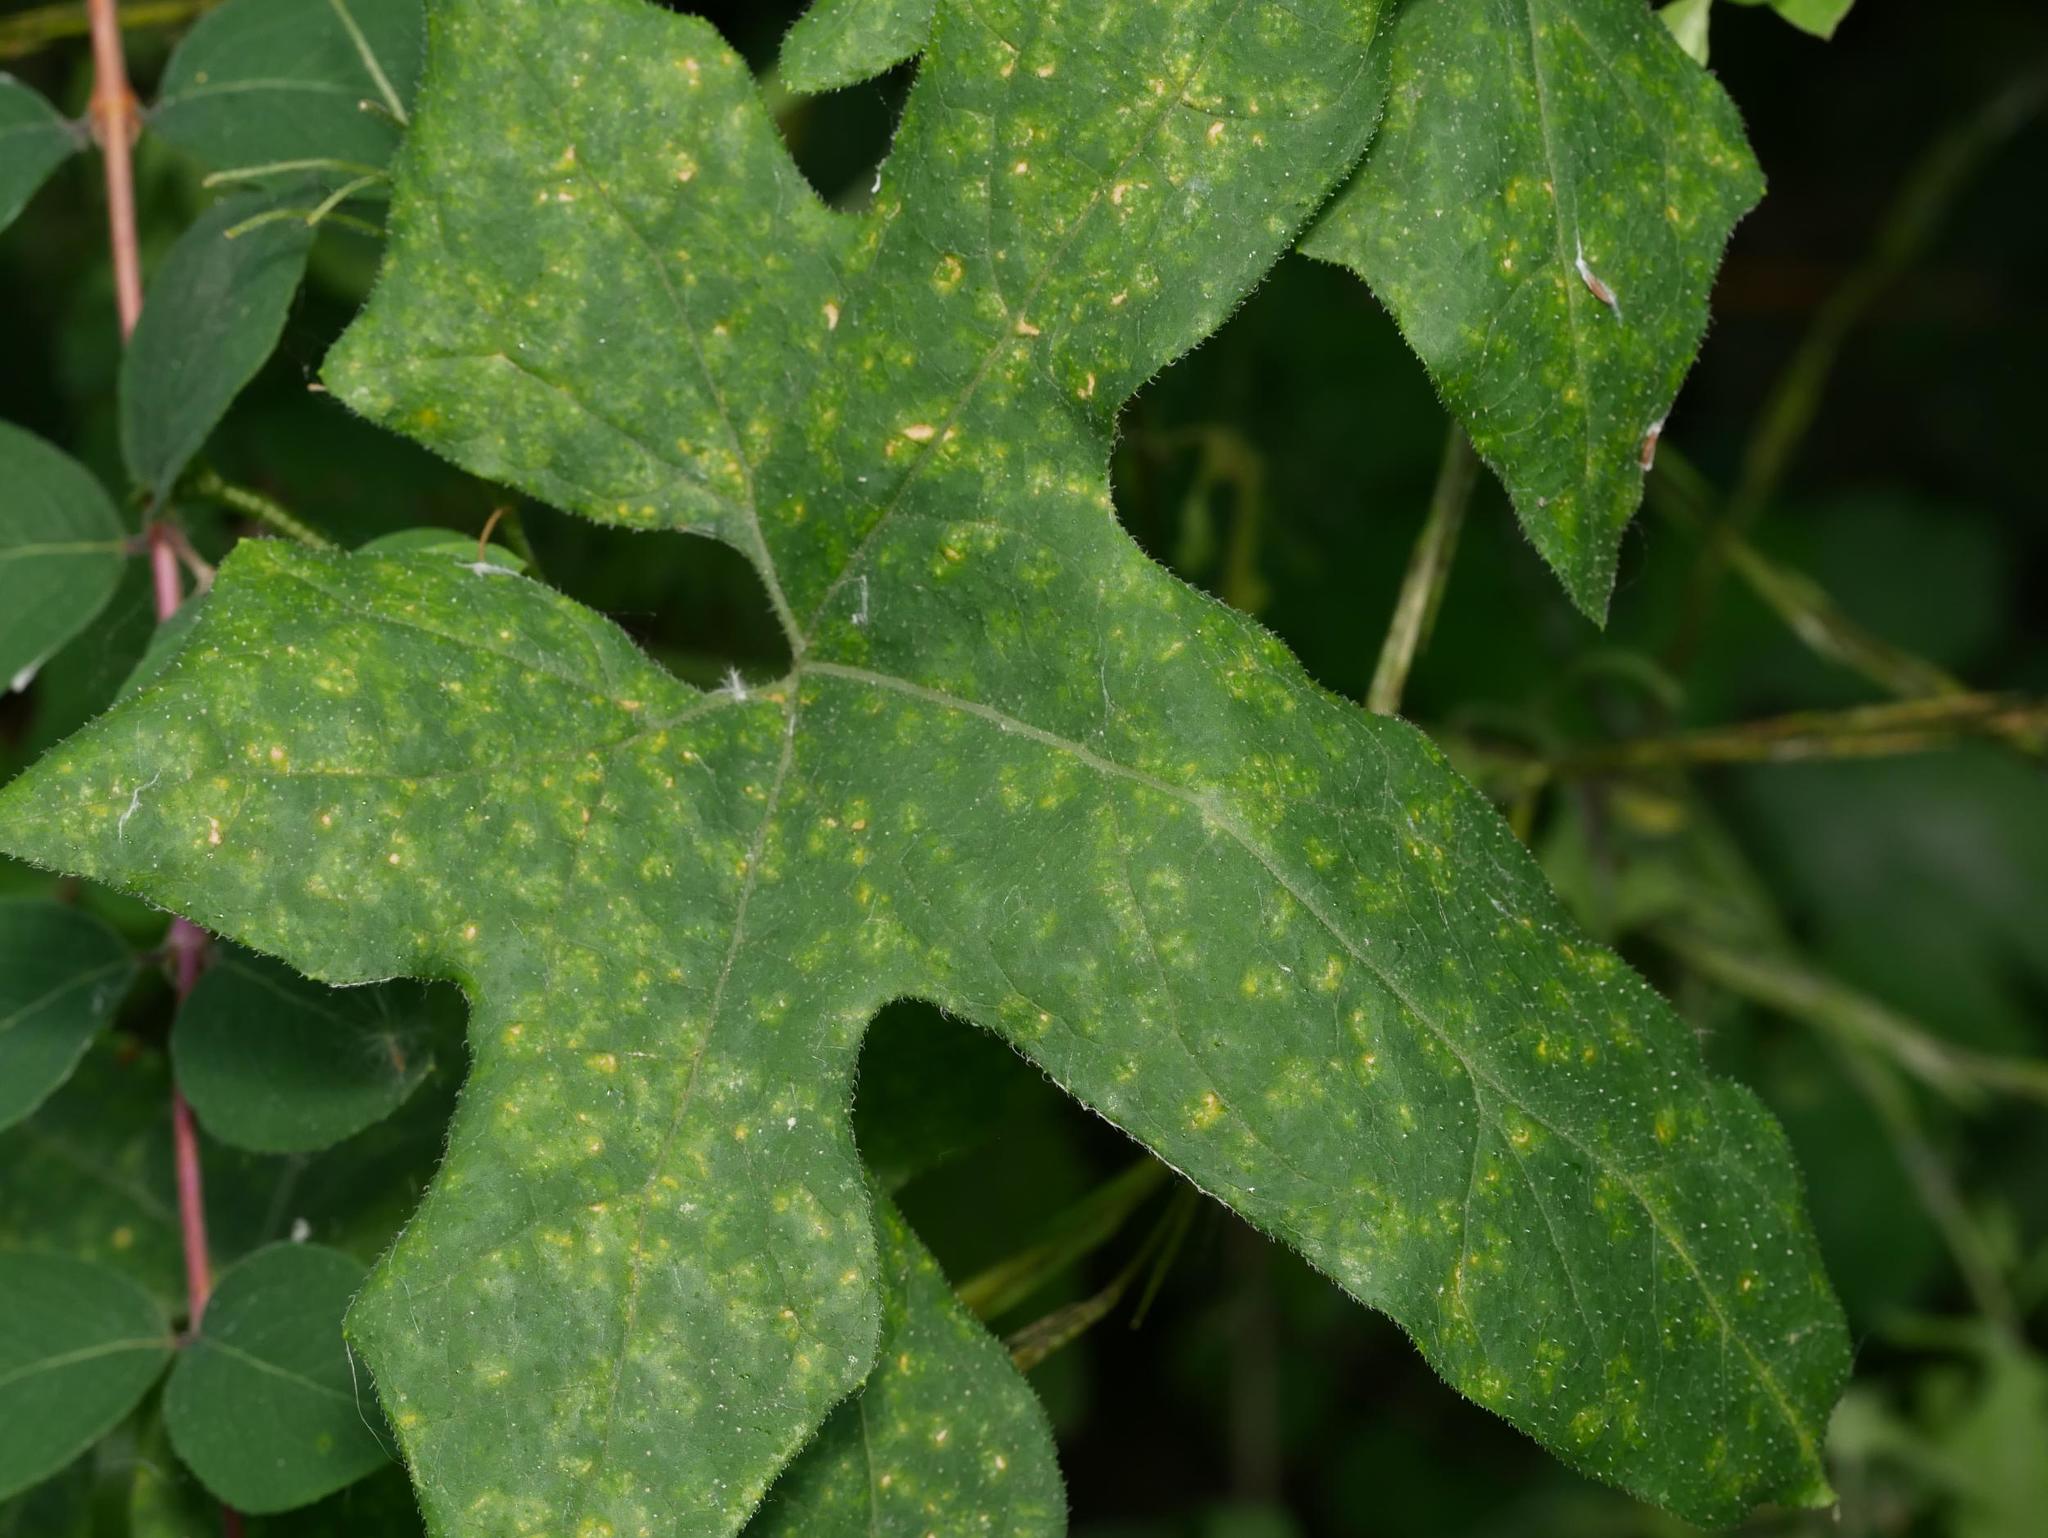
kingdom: Plantae
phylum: Tracheophyta
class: Magnoliopsida
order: Cucurbitales
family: Cucurbitaceae
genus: Bryonia
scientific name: Bryonia cretica
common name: Cretan bryony
